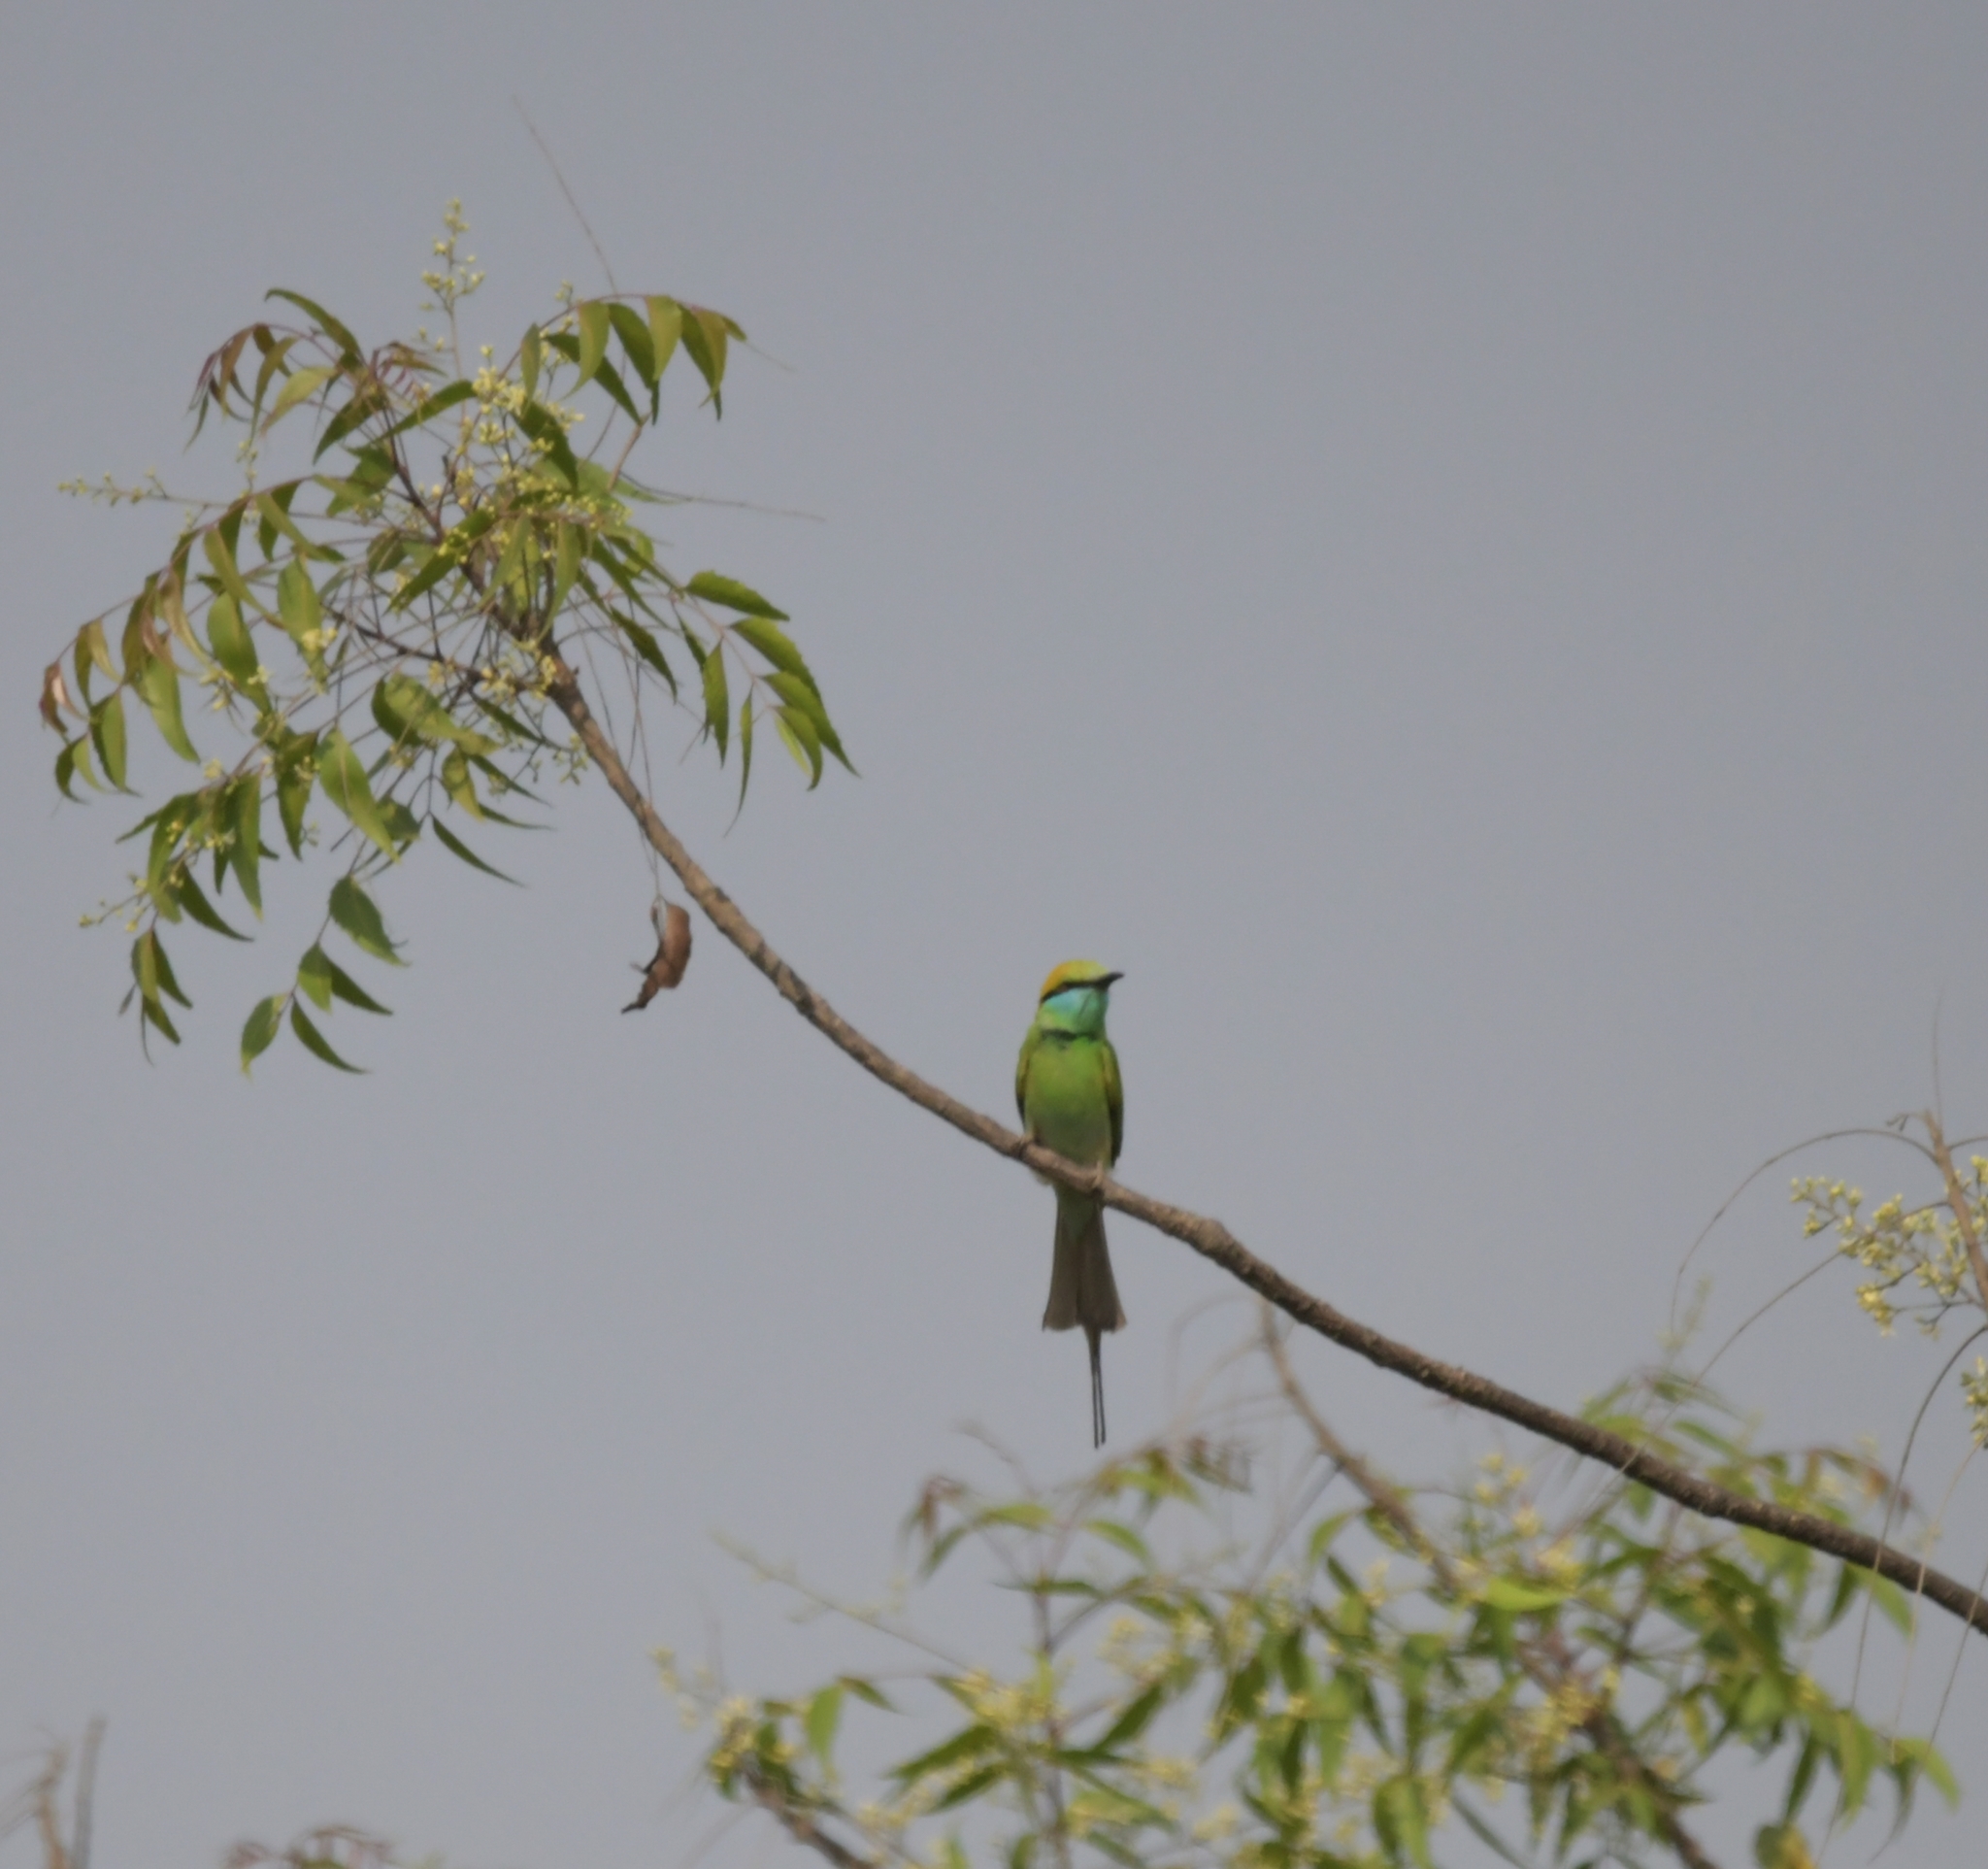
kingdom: Animalia
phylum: Chordata
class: Aves
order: Coraciiformes
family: Meropidae
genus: Merops
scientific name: Merops orientalis
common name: Green bee-eater
